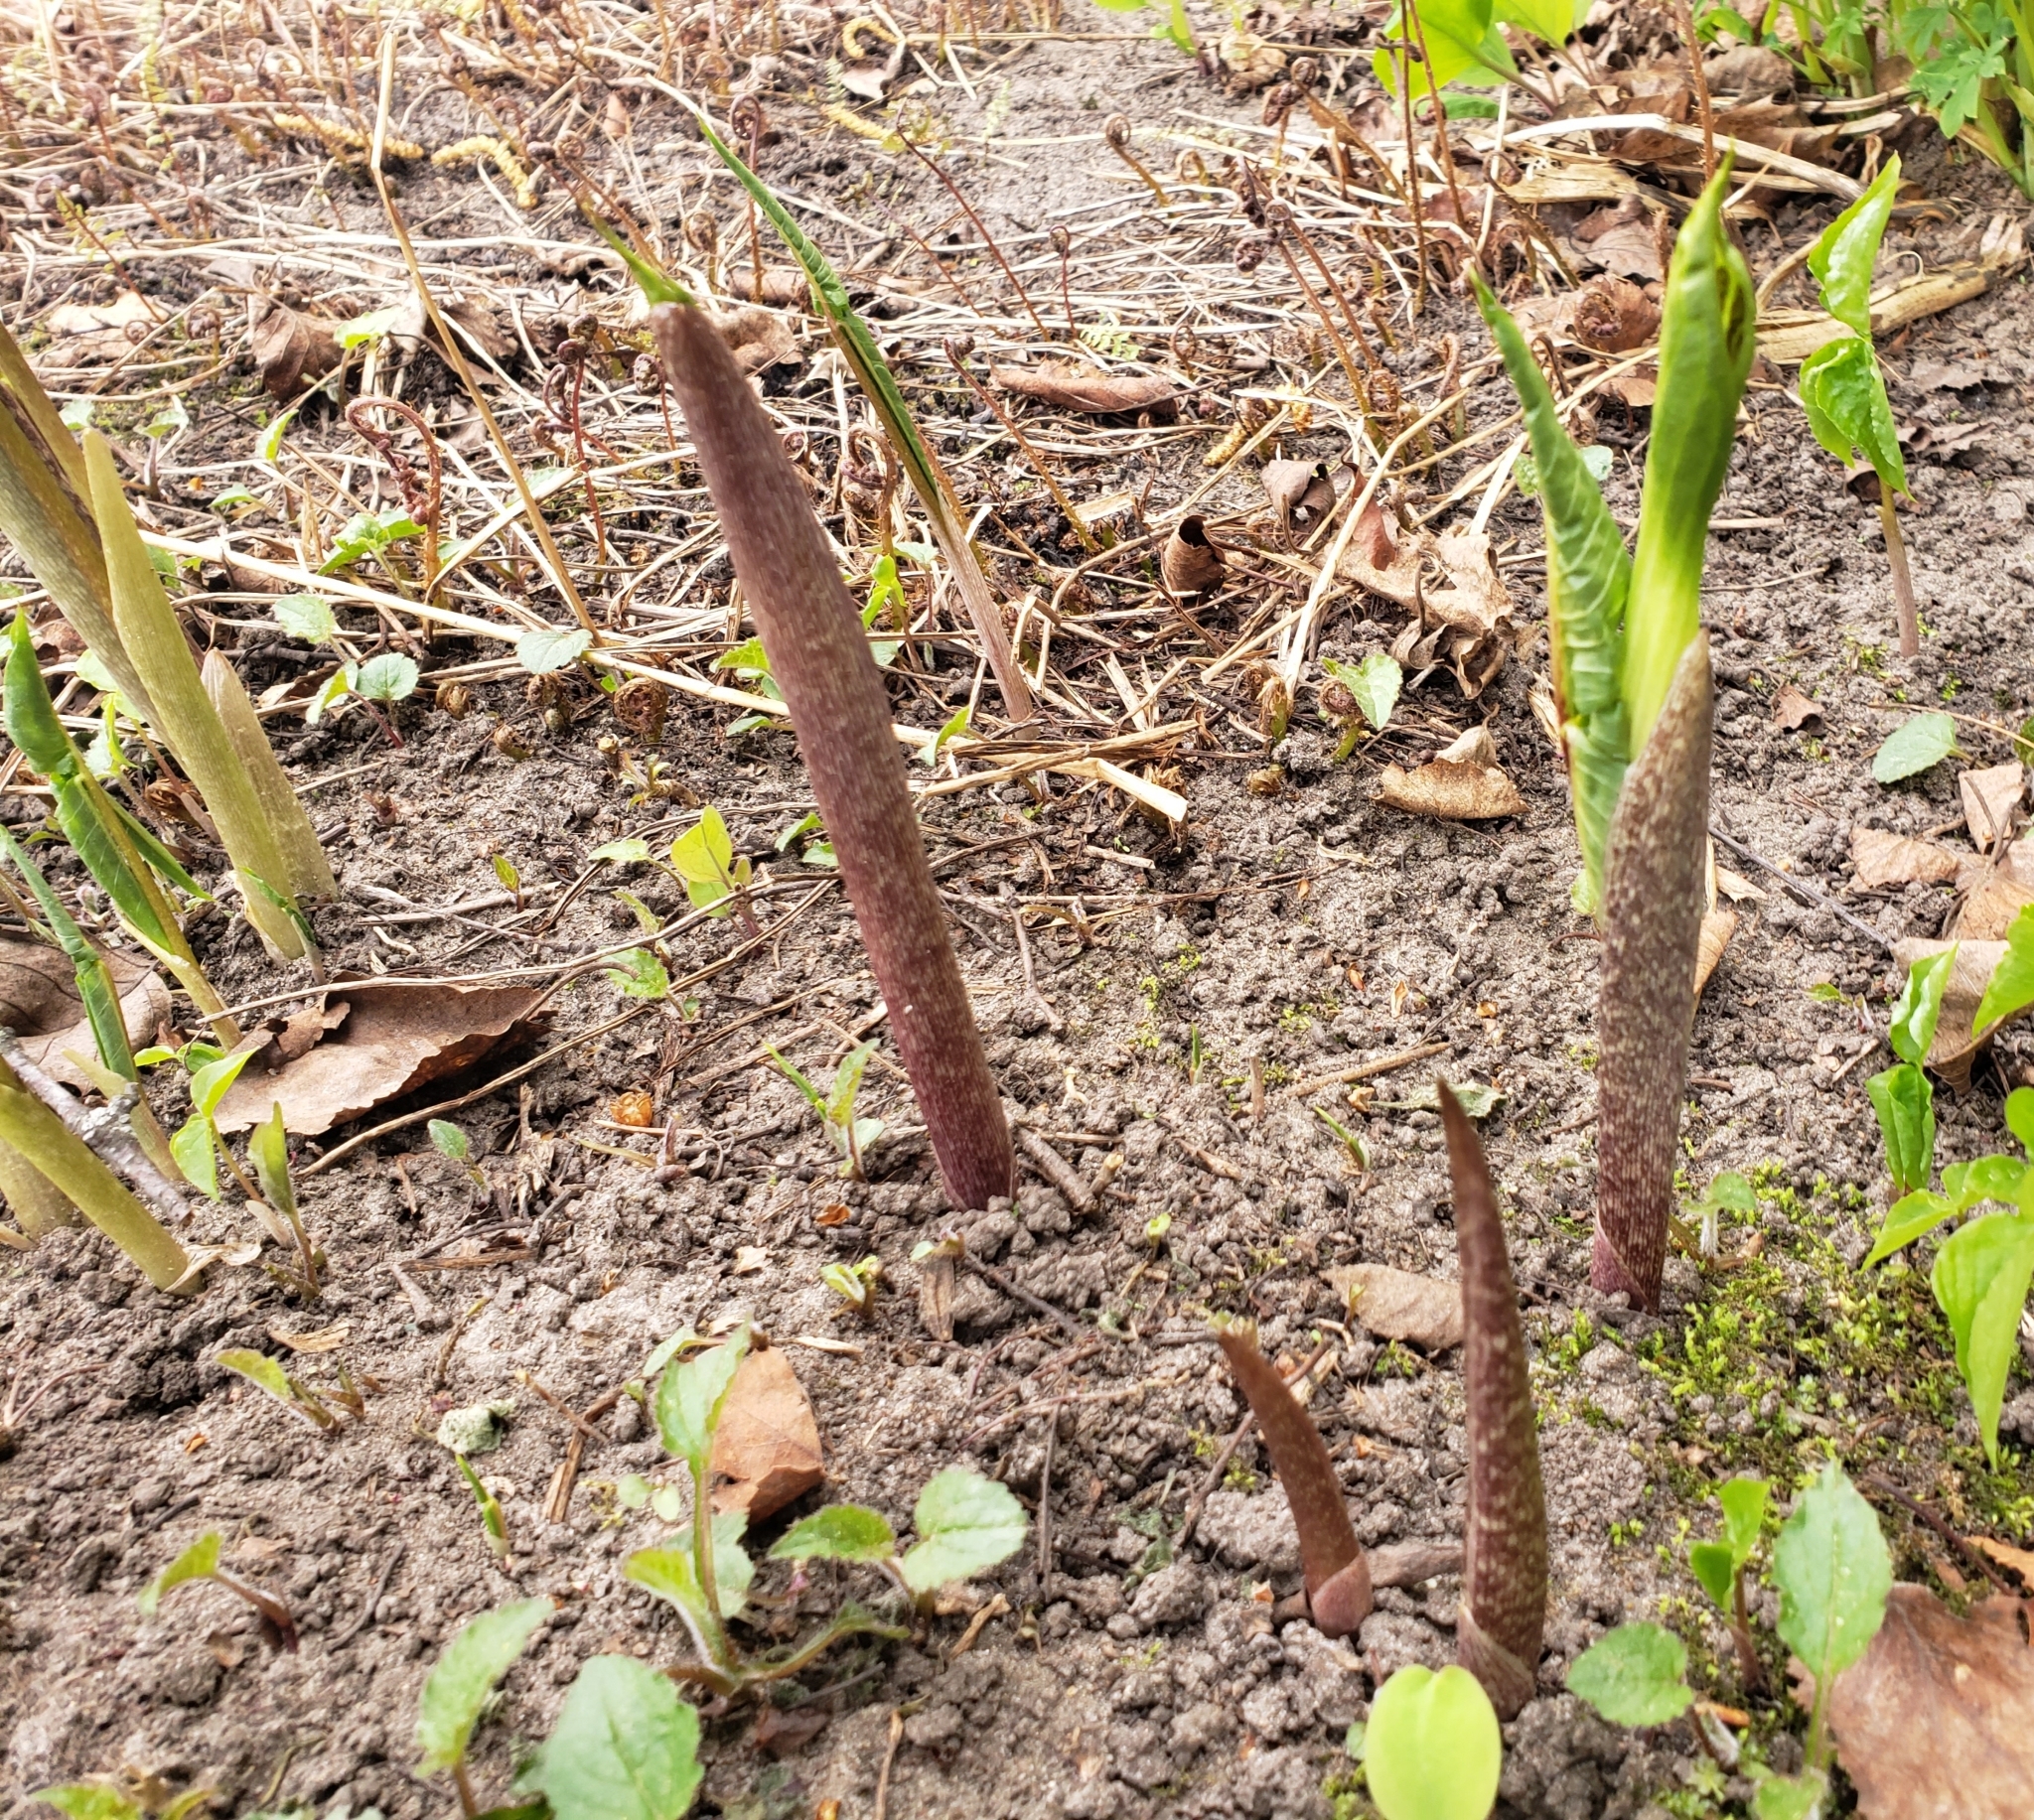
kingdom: Plantae
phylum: Tracheophyta
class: Liliopsida
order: Alismatales
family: Araceae
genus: Arisaema
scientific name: Arisaema triphyllum
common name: Jack-in-the-pulpit
